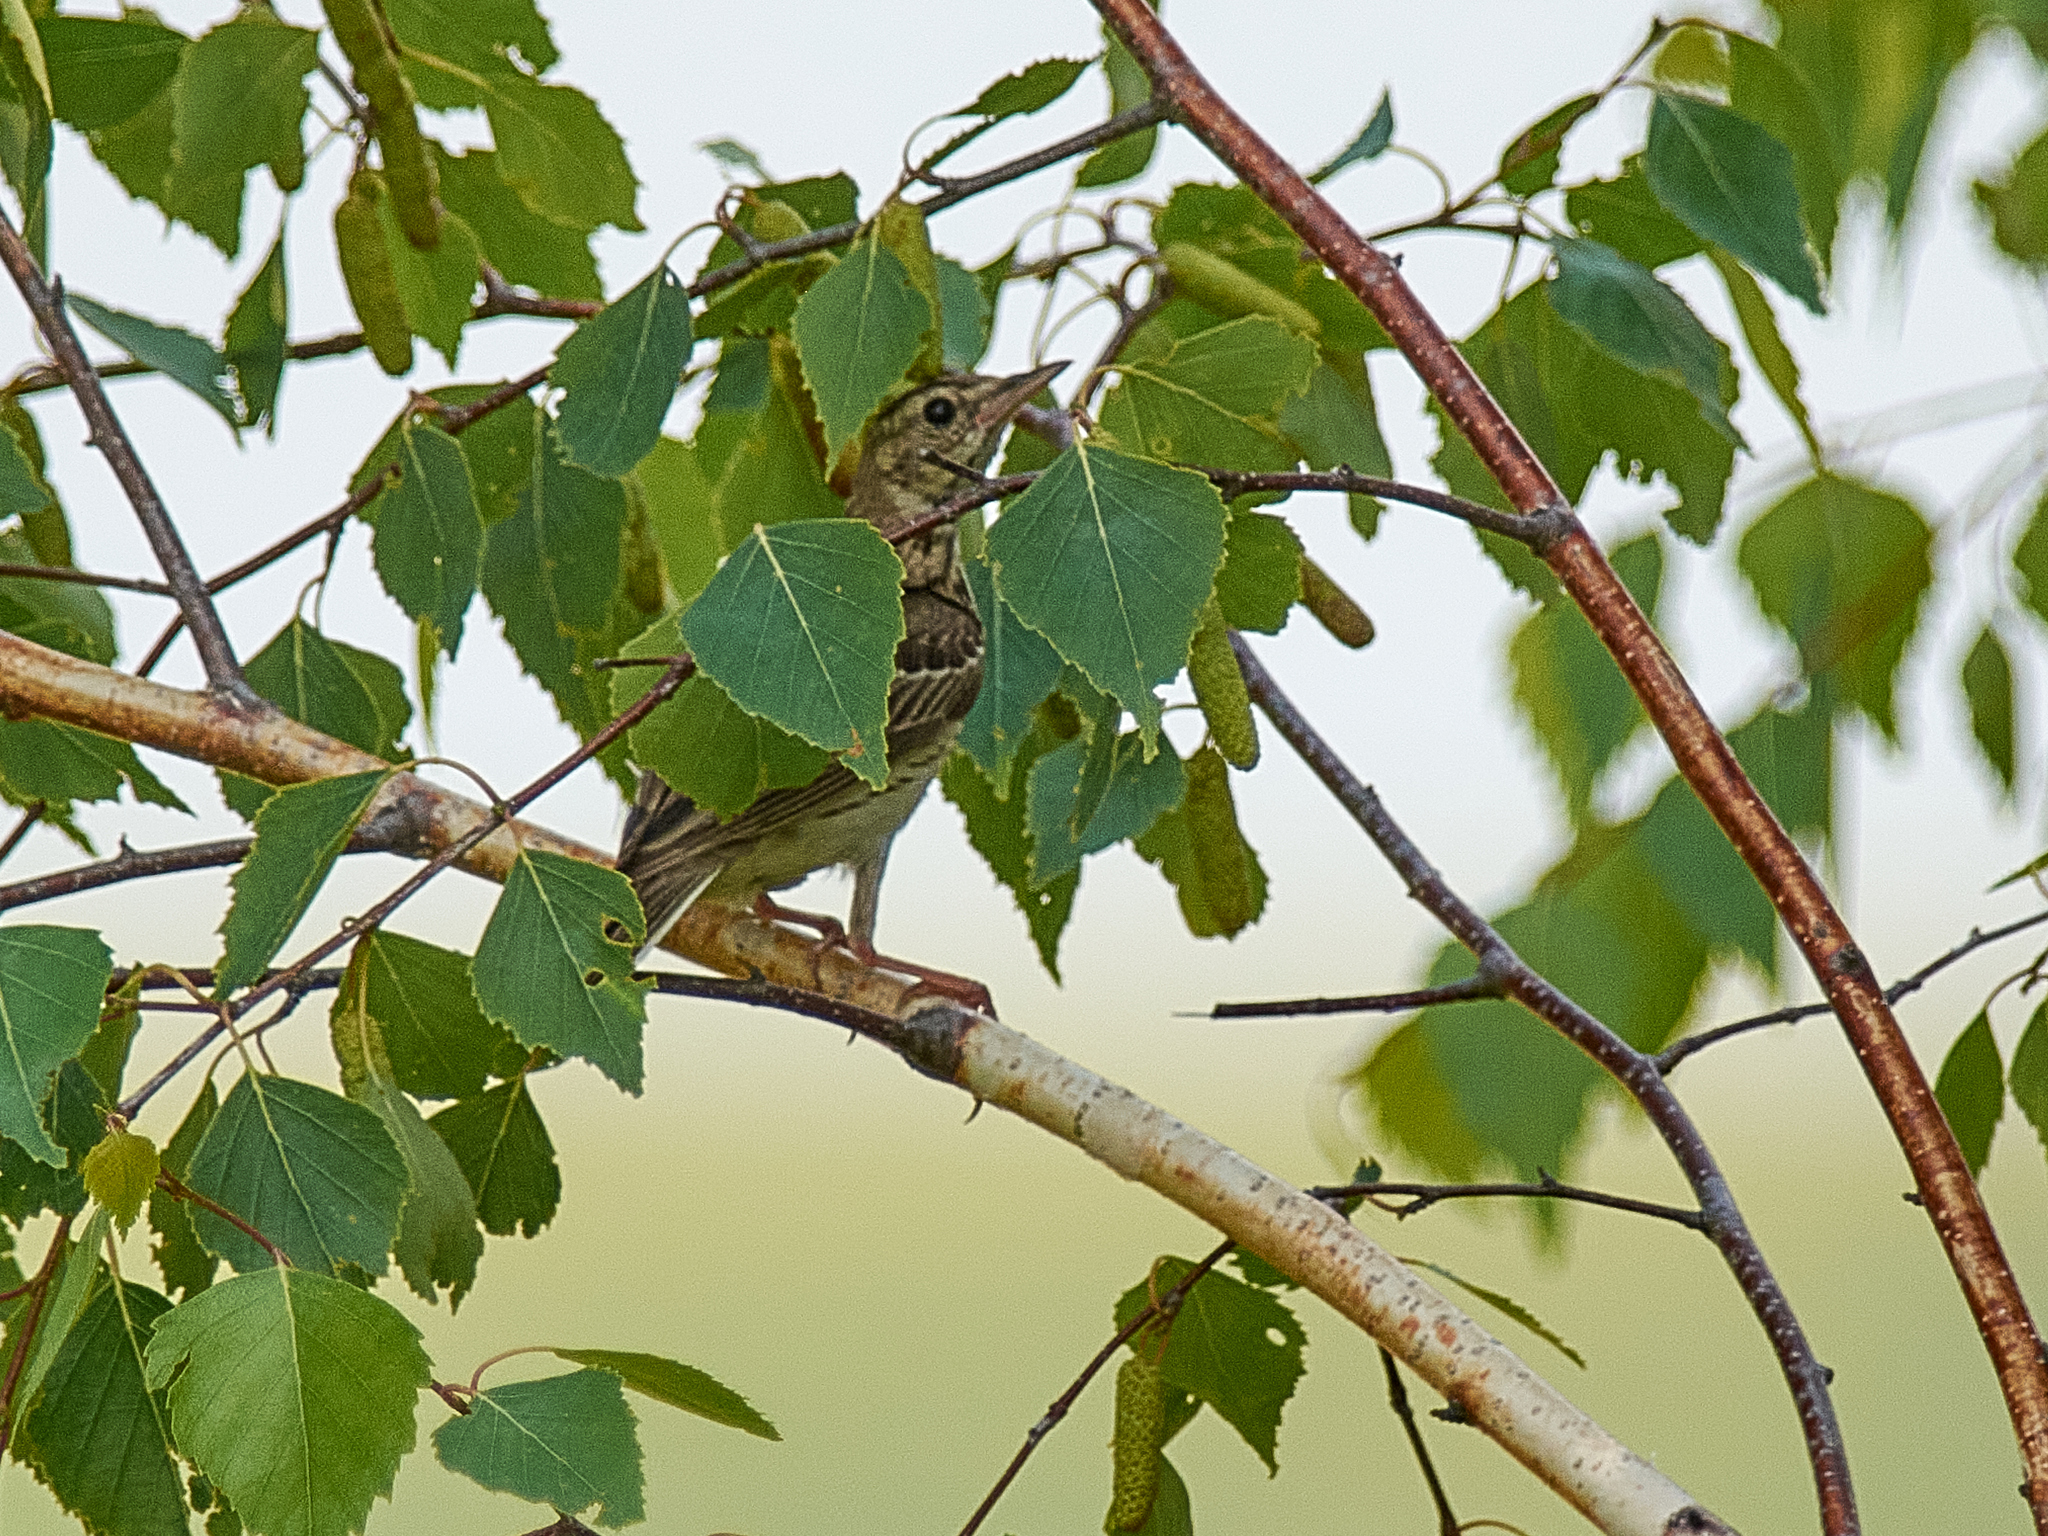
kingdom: Animalia
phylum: Chordata
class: Aves
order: Passeriformes
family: Motacillidae
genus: Anthus
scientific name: Anthus trivialis
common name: Tree pipit
